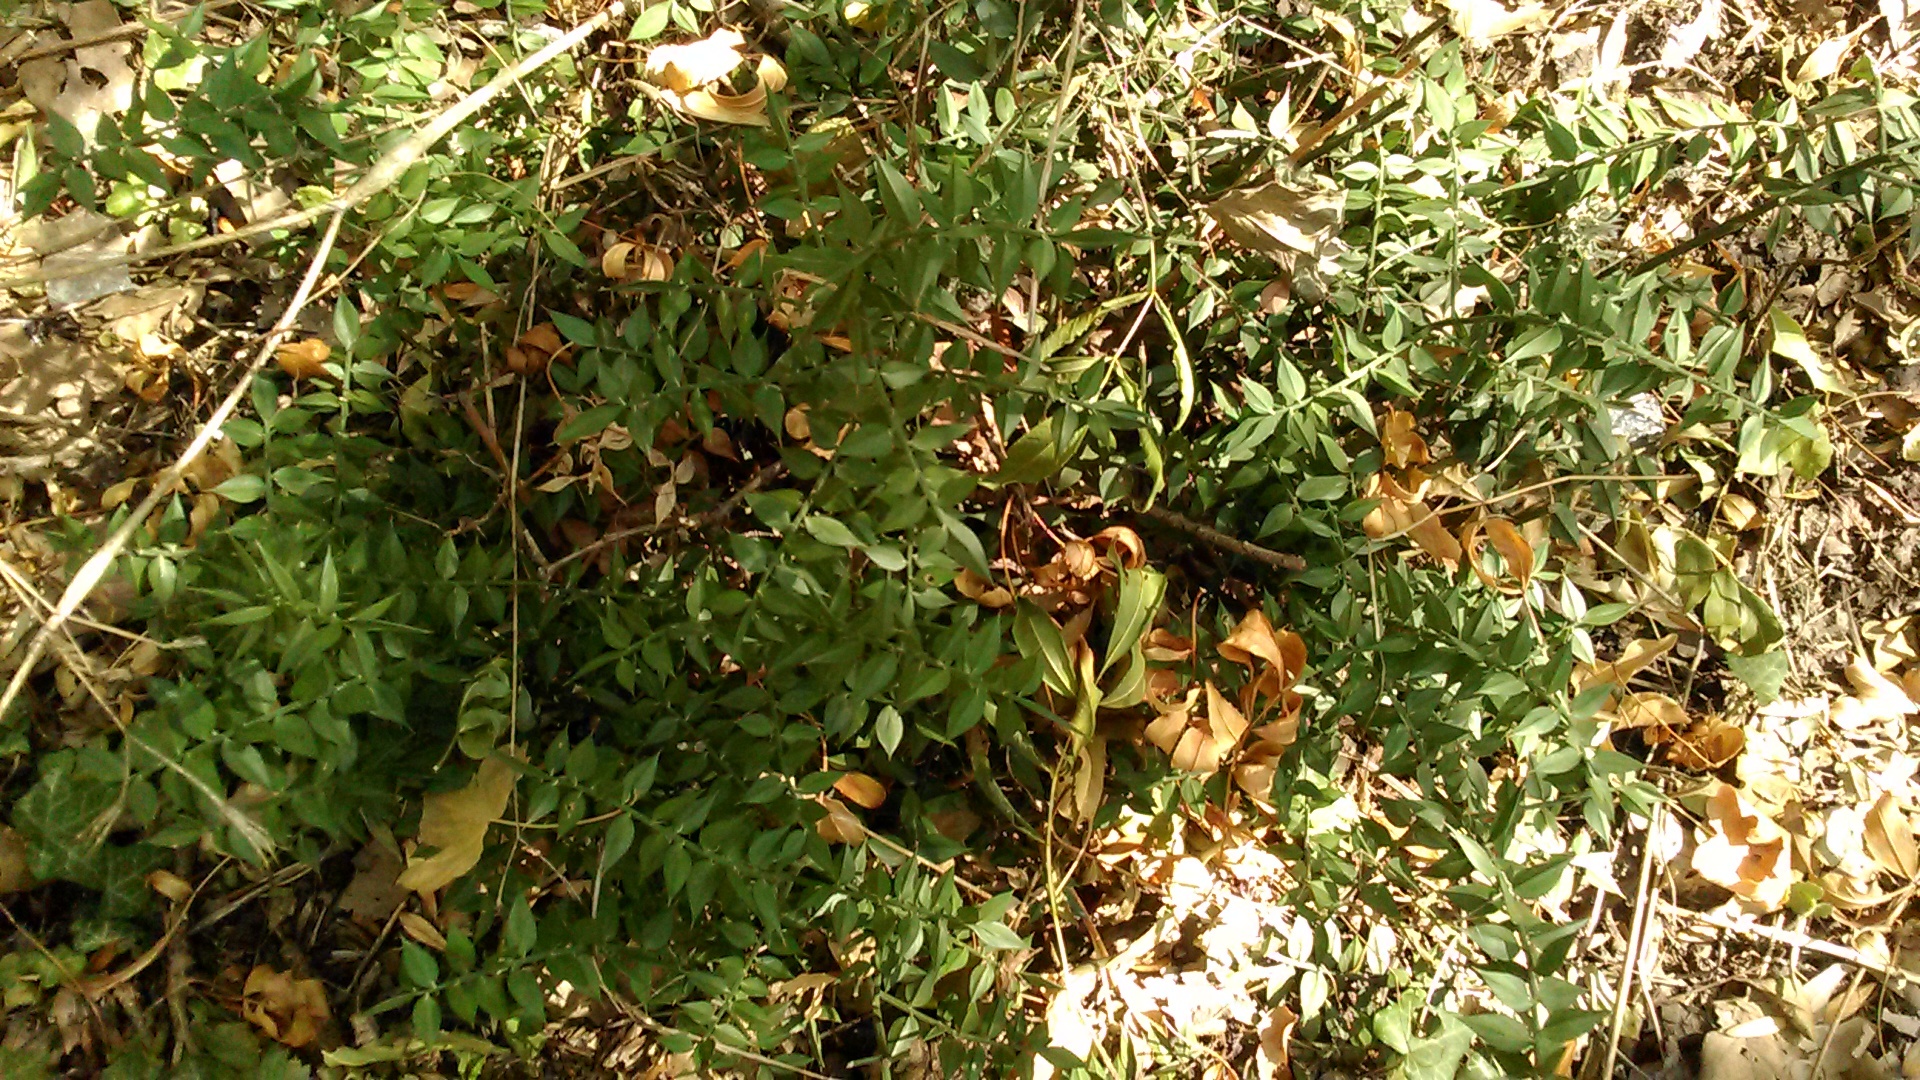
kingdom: Plantae
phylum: Tracheophyta
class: Liliopsida
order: Asparagales
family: Asparagaceae
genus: Ruscus
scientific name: Ruscus aculeatus
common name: Butcher's-broom
